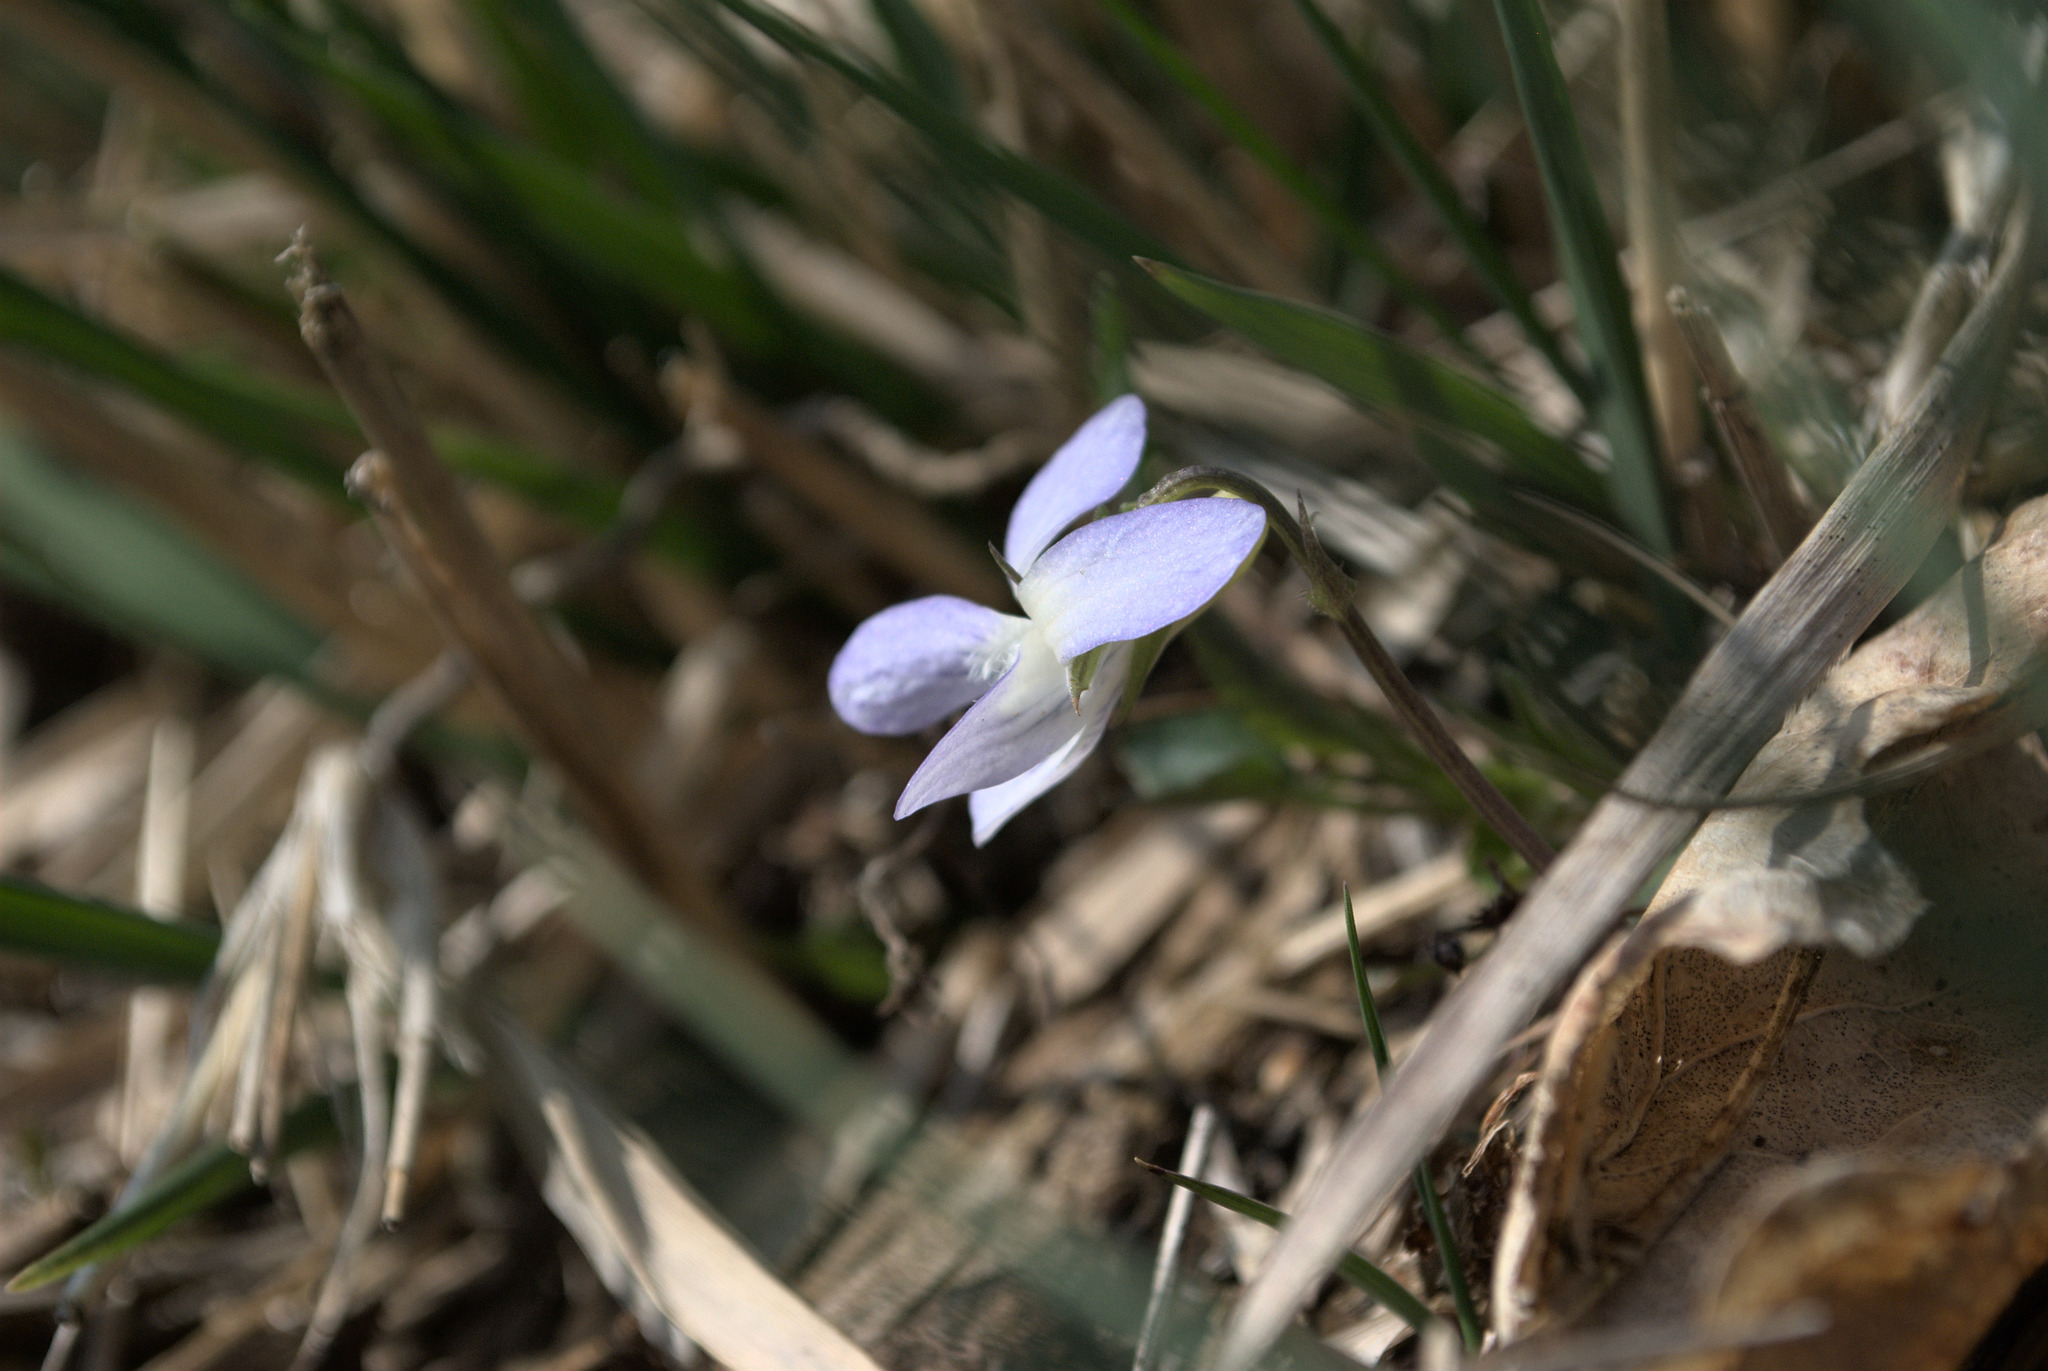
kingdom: Plantae
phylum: Tracheophyta
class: Magnoliopsida
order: Malpighiales
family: Violaceae
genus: Viola
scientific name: Viola lactea
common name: Pale dog-violet
